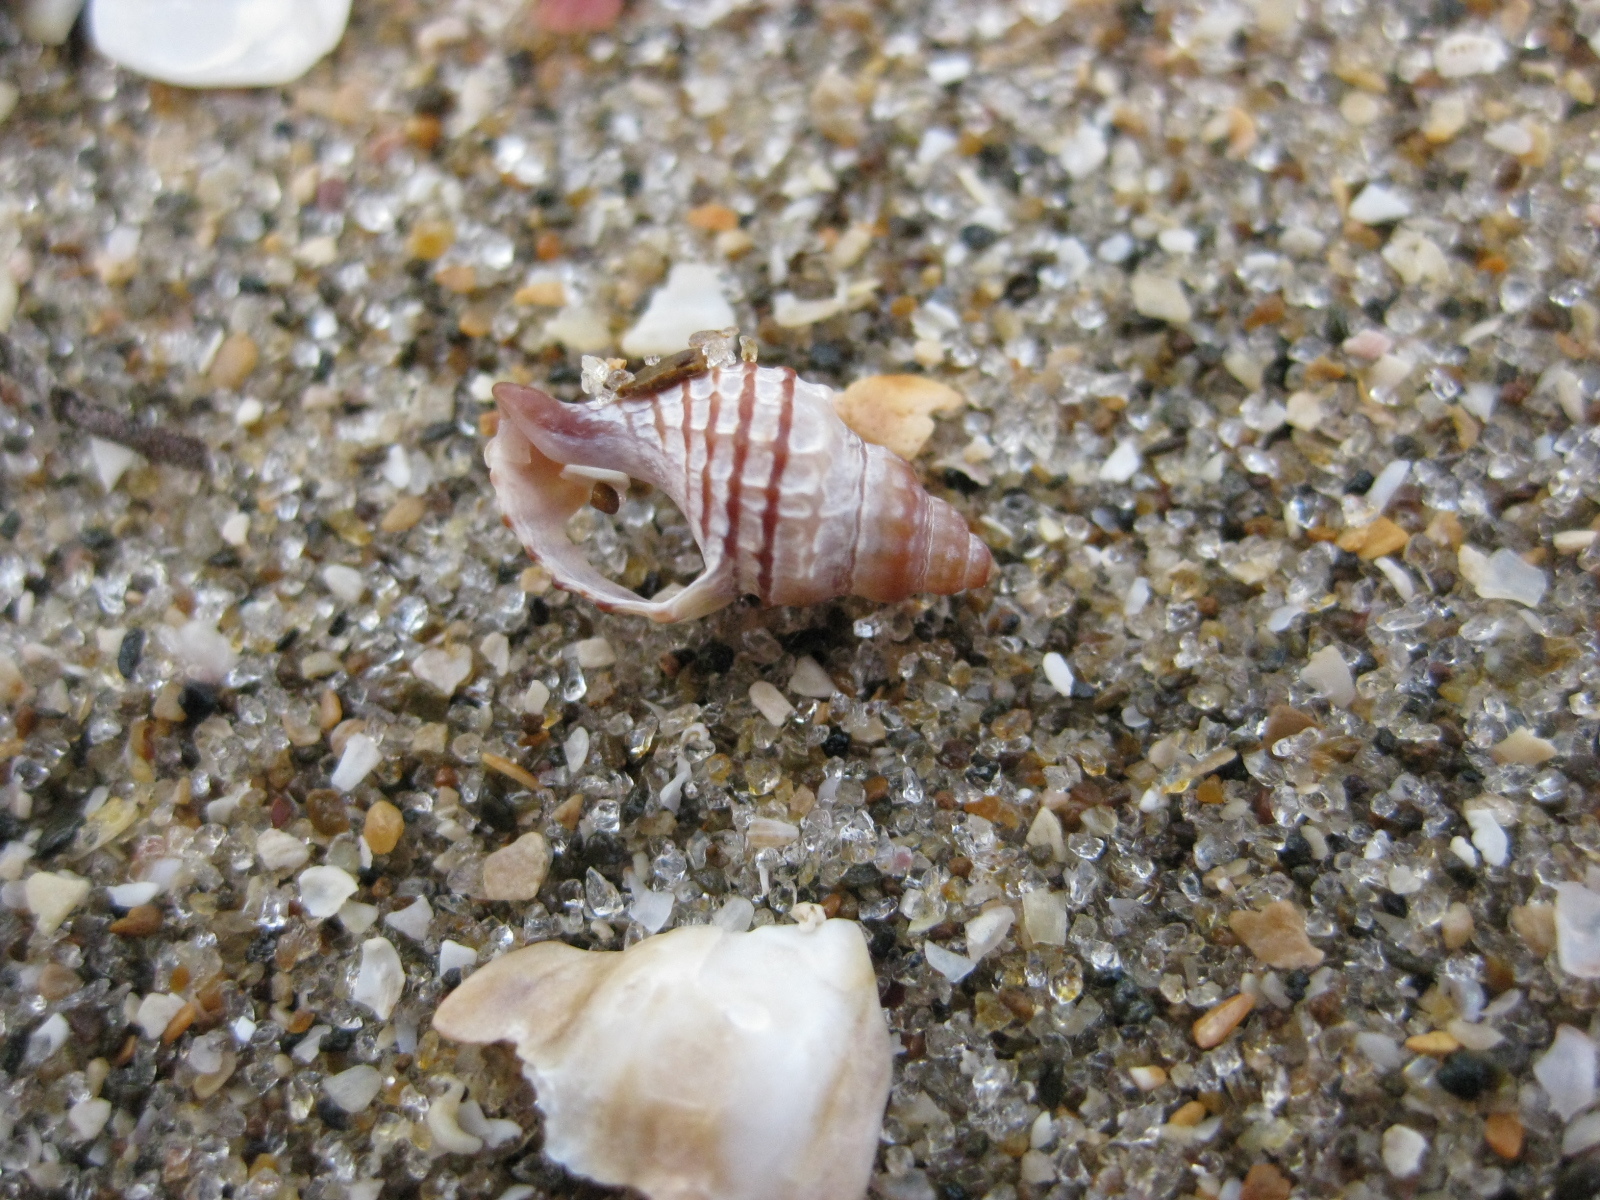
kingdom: Animalia
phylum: Mollusca
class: Gastropoda
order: Neogastropoda
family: Muricidae
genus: Xymene
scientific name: Xymene plebeius
